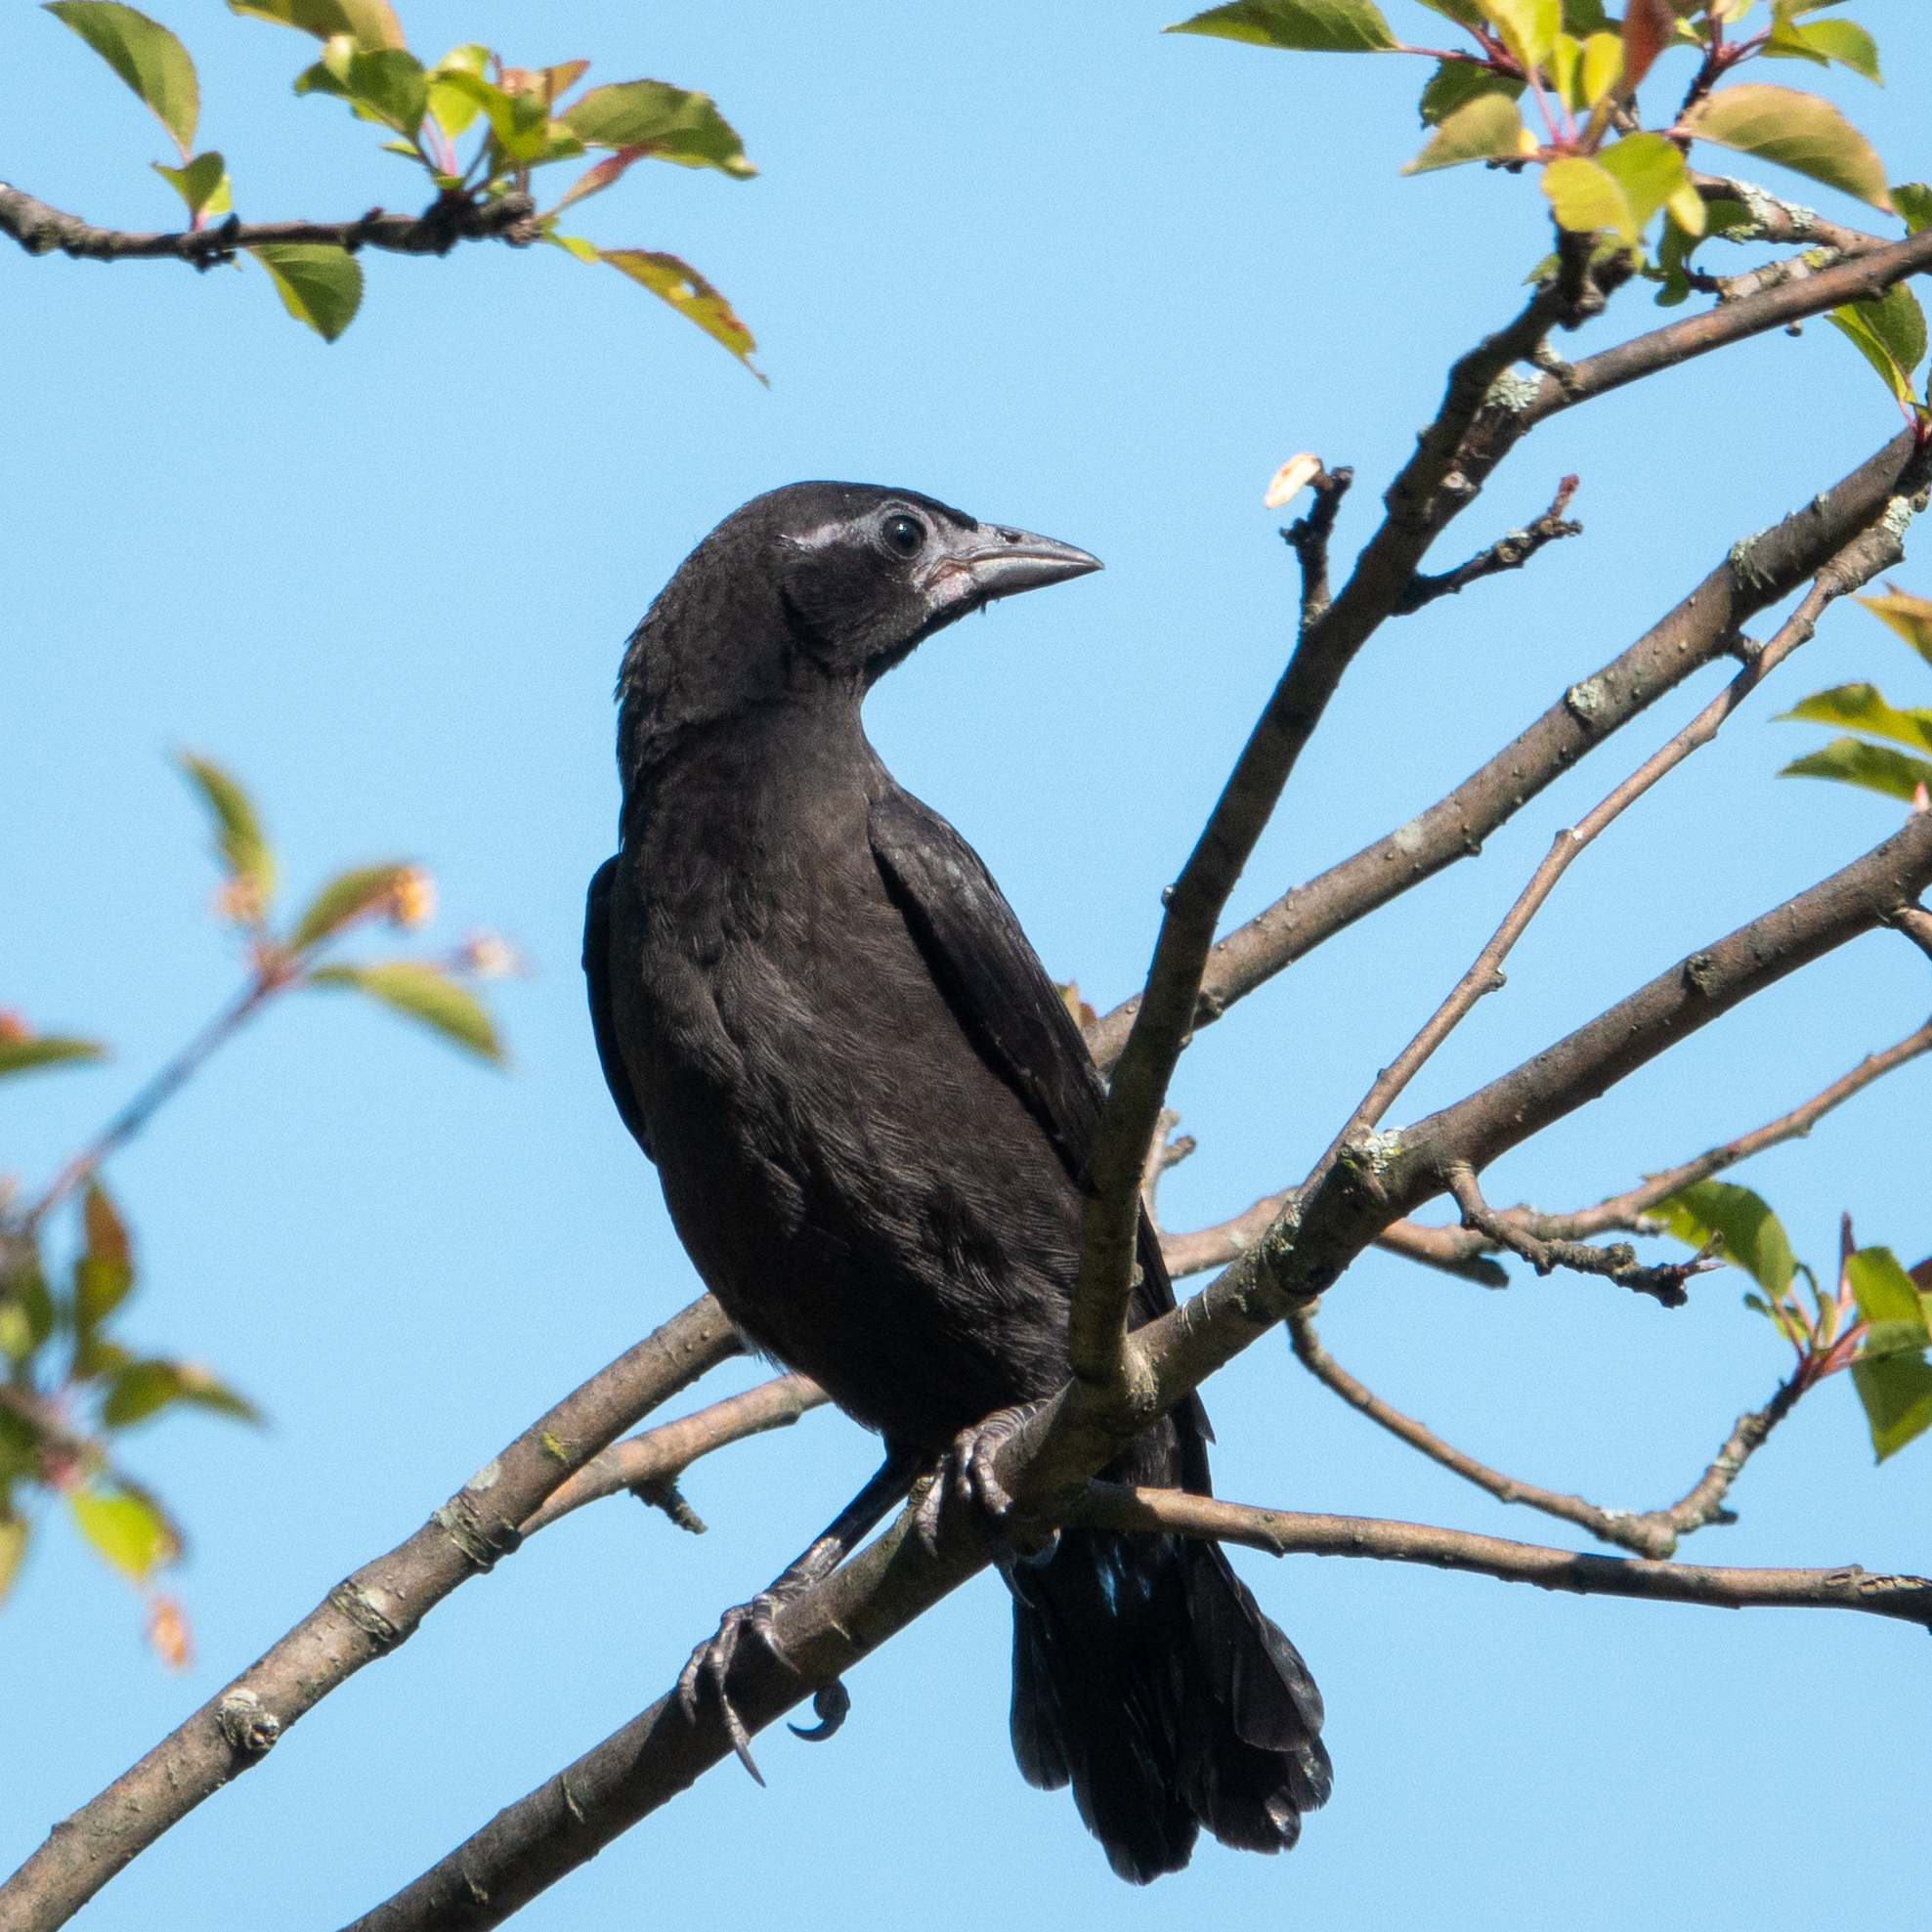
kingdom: Animalia
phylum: Chordata
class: Aves
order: Passeriformes
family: Icteridae
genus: Quiscalus
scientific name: Quiscalus quiscula
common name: Common grackle
